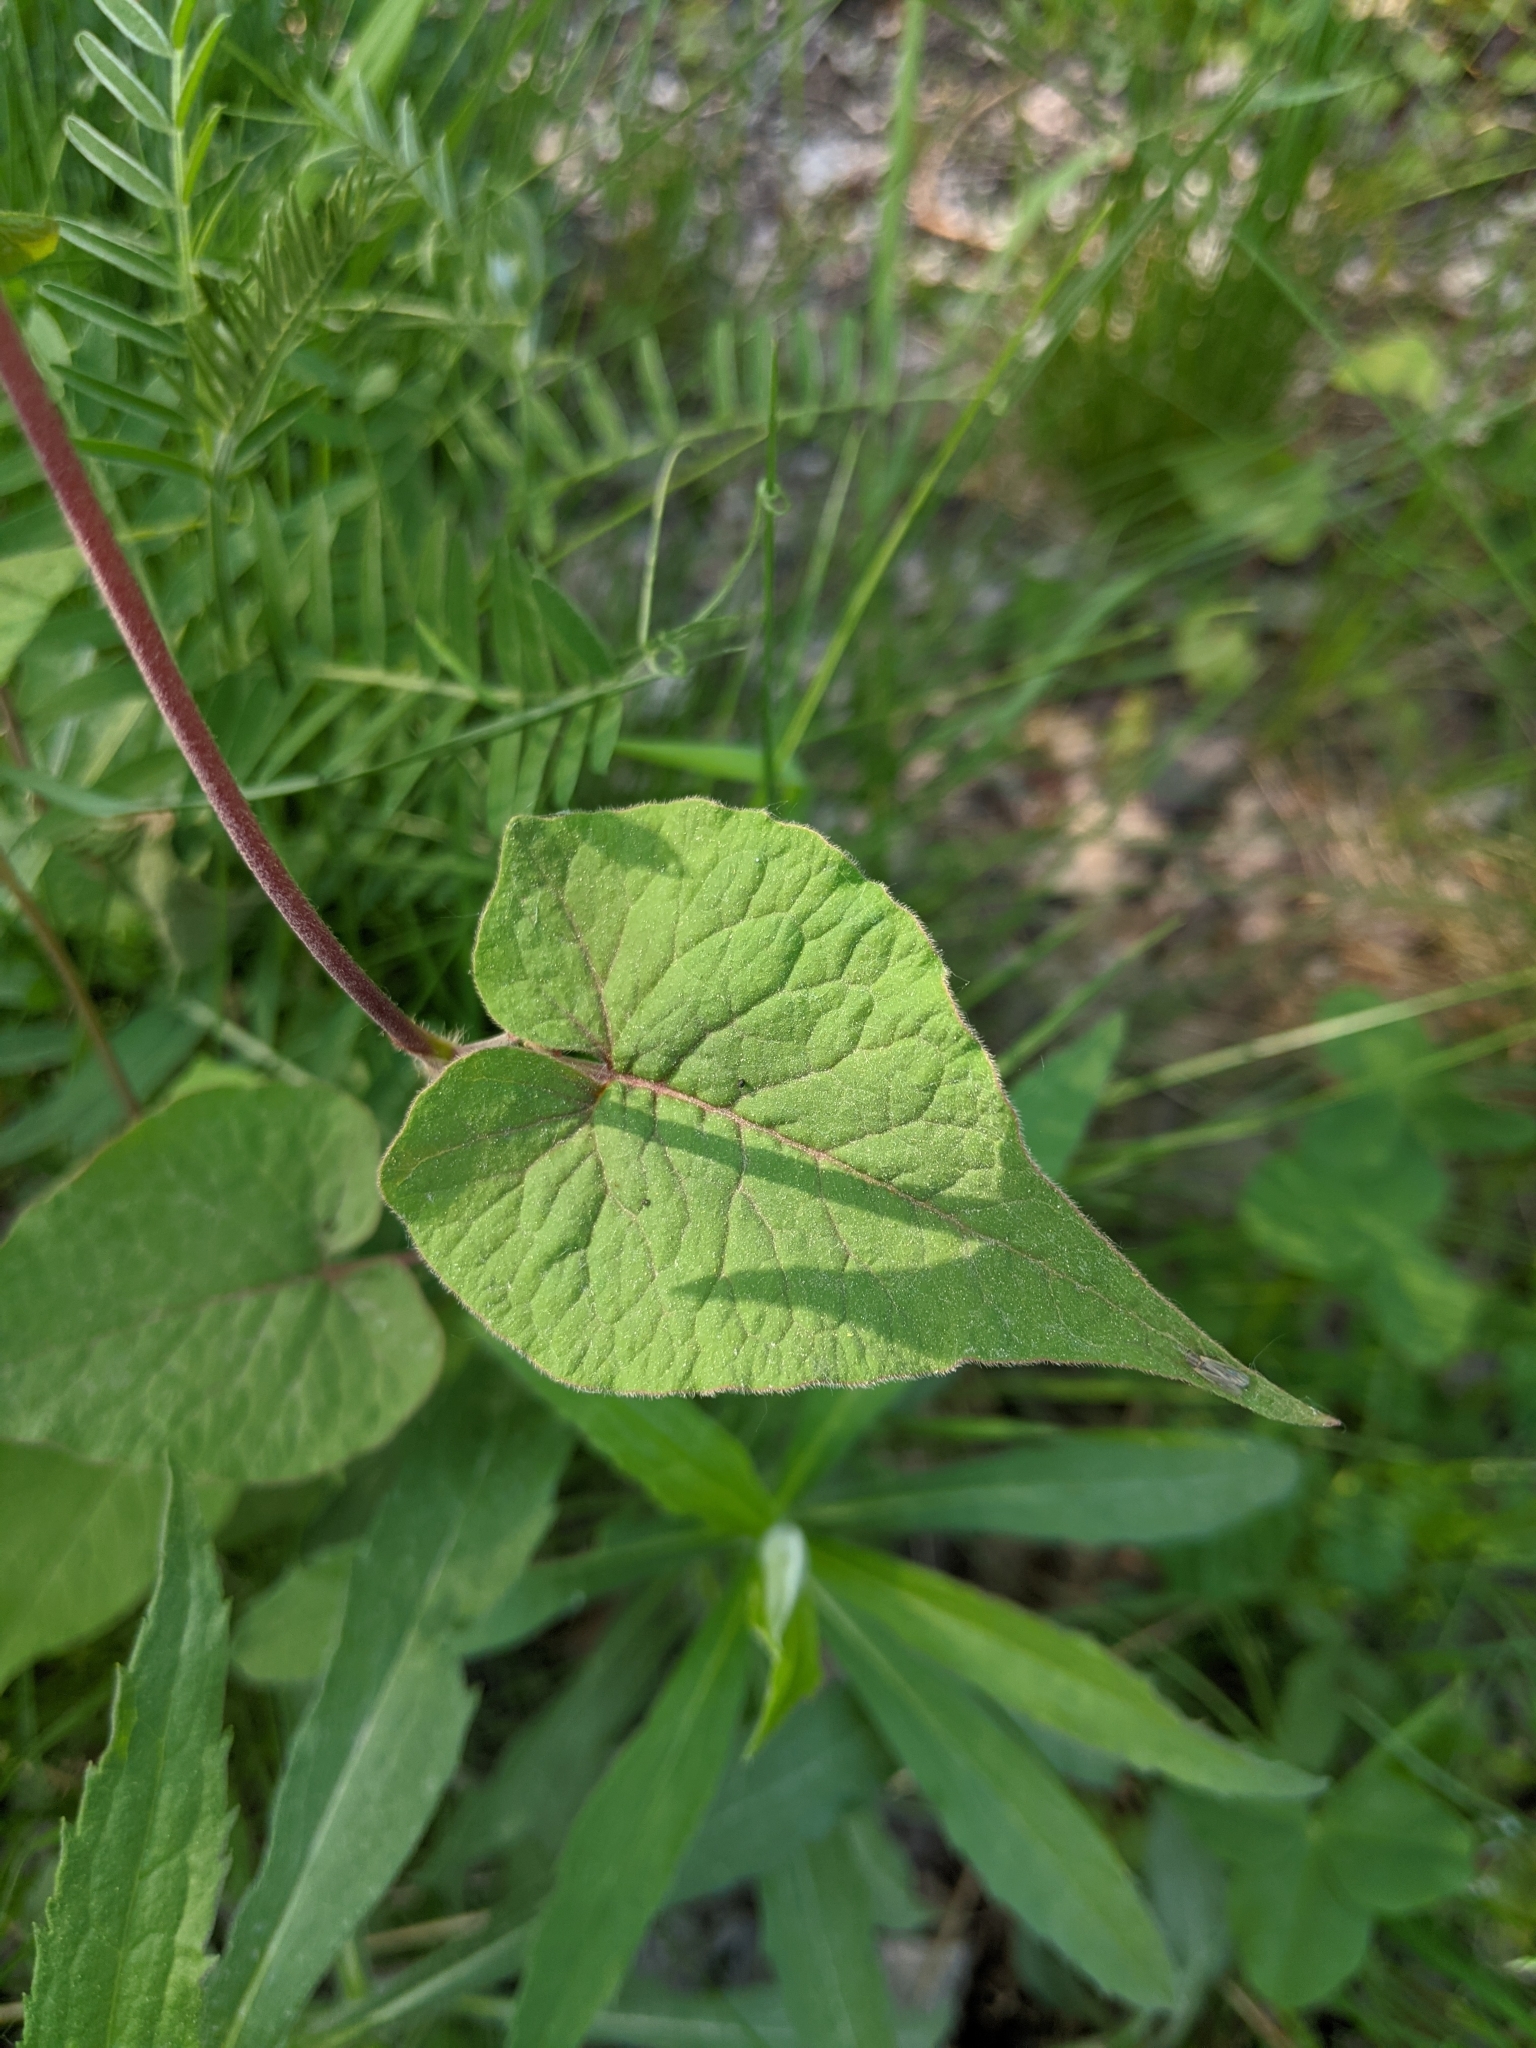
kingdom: Plantae
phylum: Tracheophyta
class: Magnoliopsida
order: Caryophyllales
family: Polygonaceae
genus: Parogonum
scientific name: Parogonum ciliinode
